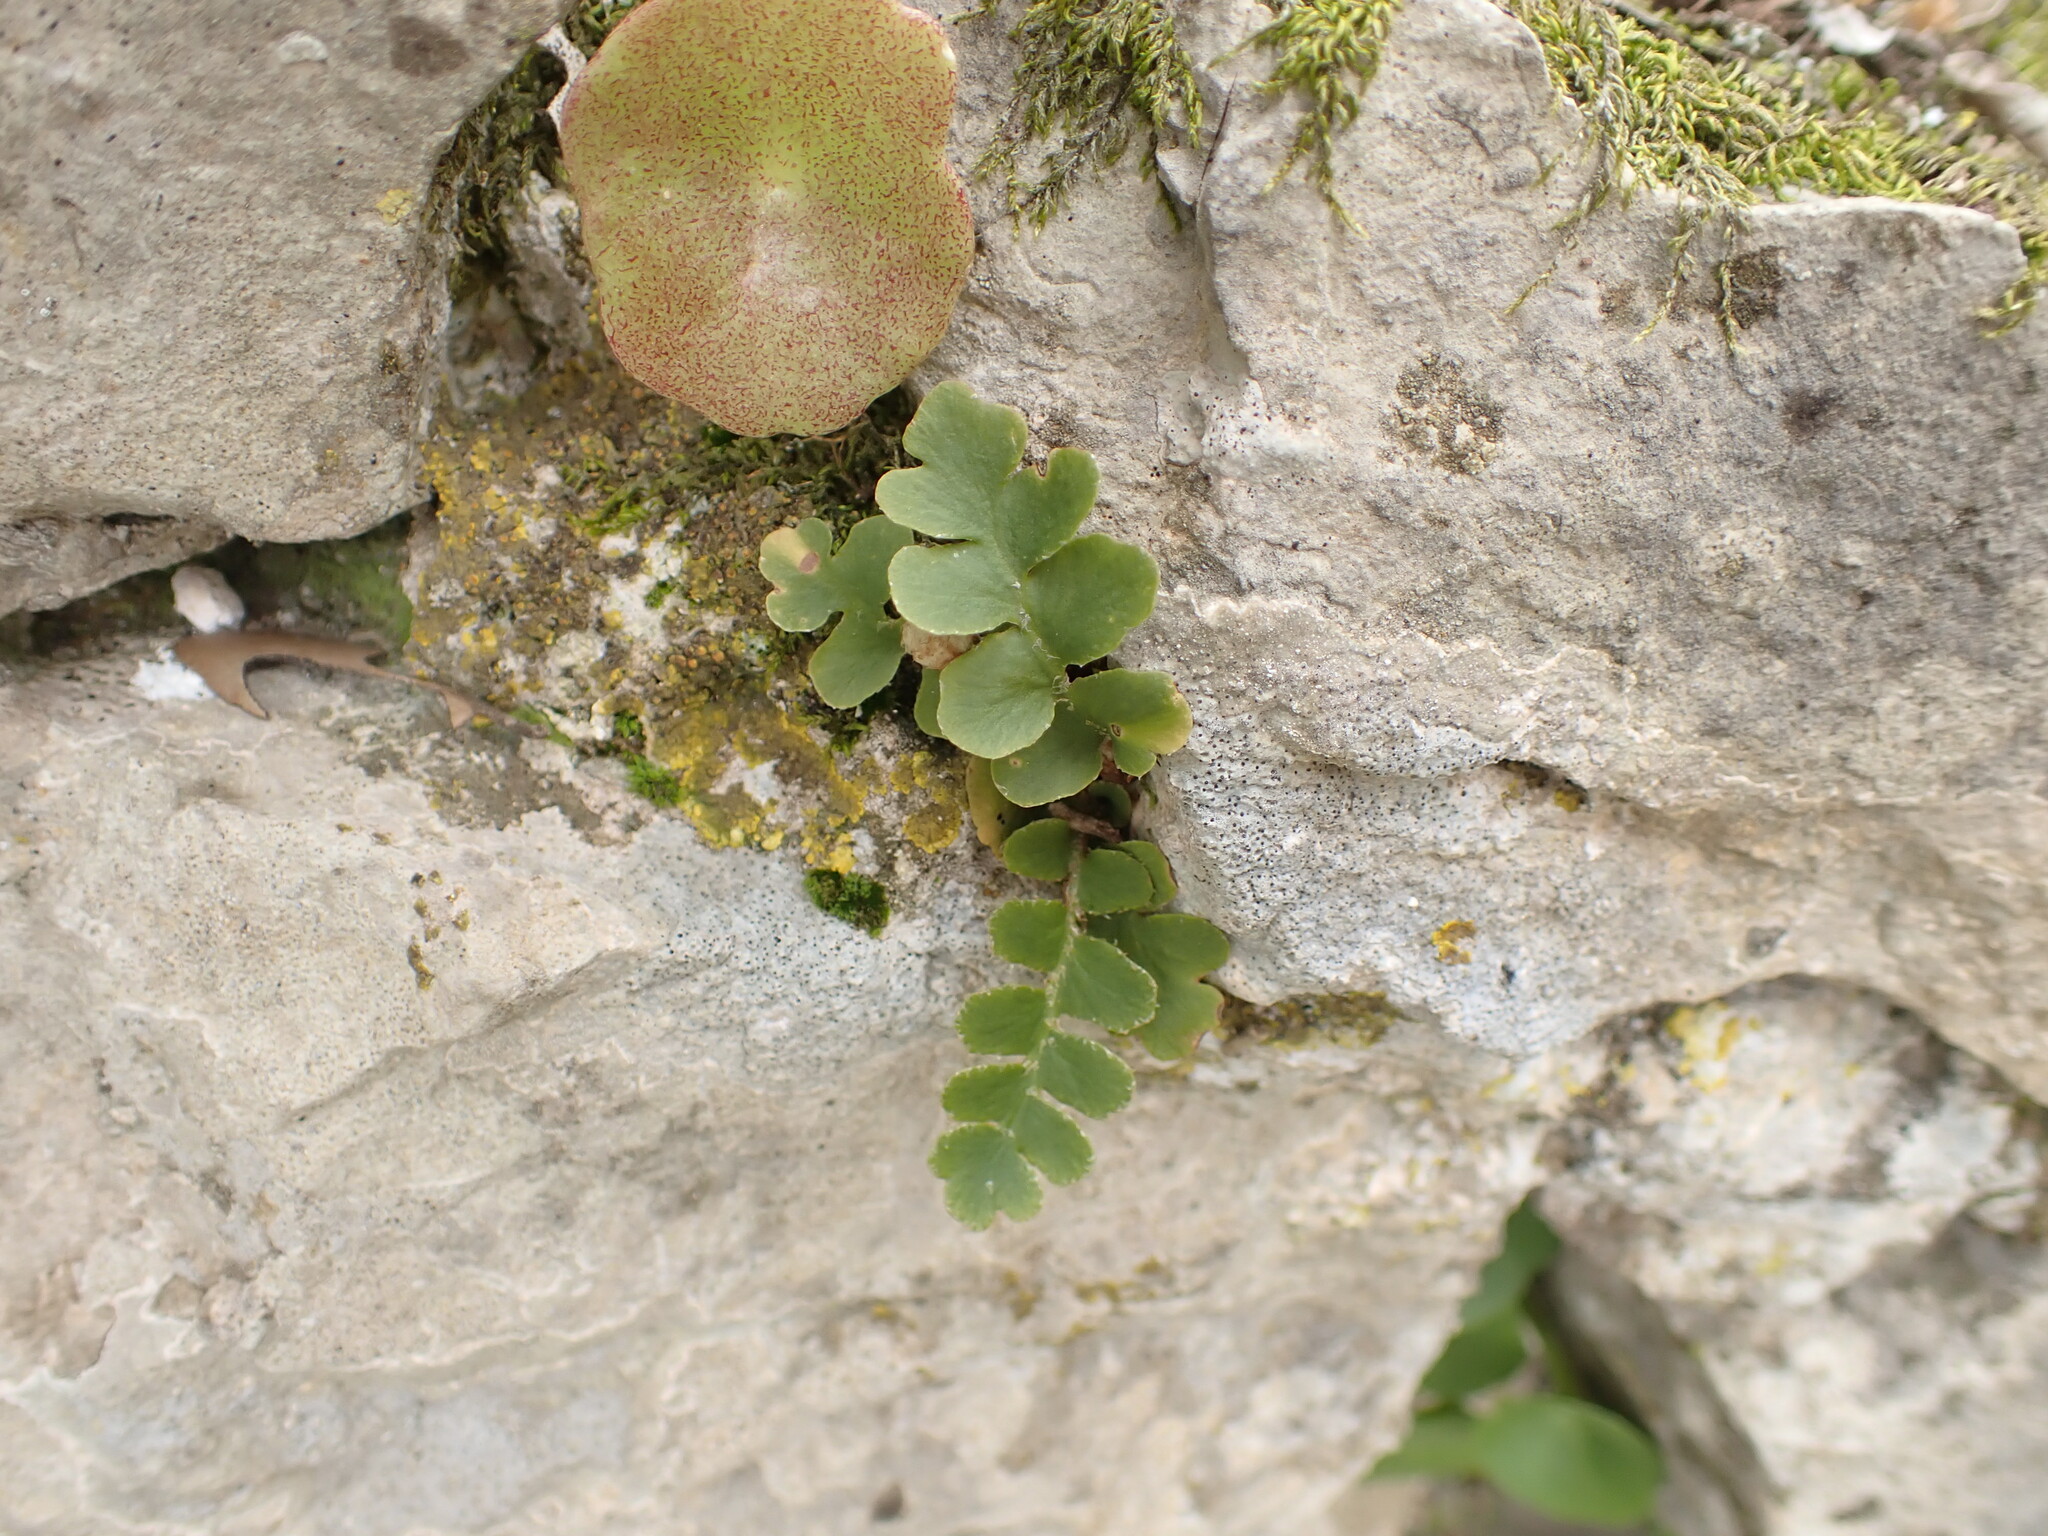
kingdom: Plantae
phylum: Tracheophyta
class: Polypodiopsida
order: Polypodiales
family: Aspleniaceae
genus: Asplenium
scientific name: Asplenium ceterach
